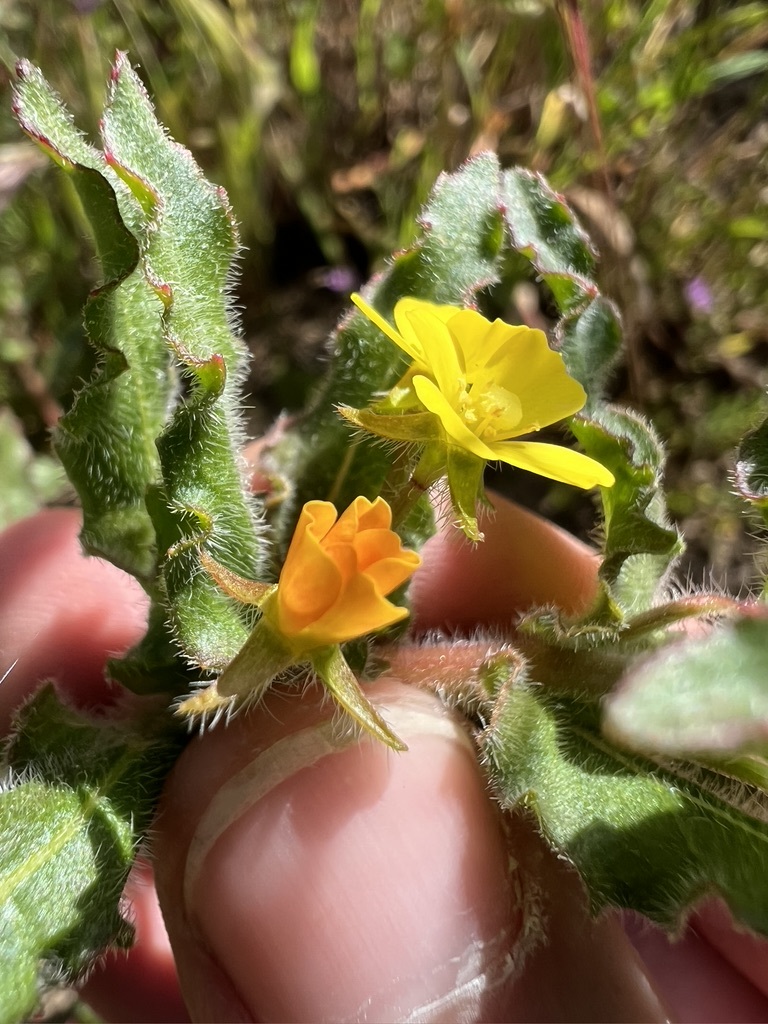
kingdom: Plantae
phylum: Tracheophyta
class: Magnoliopsida
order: Myrtales
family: Onagraceae
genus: Camissoniopsis
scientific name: Camissoniopsis micrantha
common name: Miniature suncup
